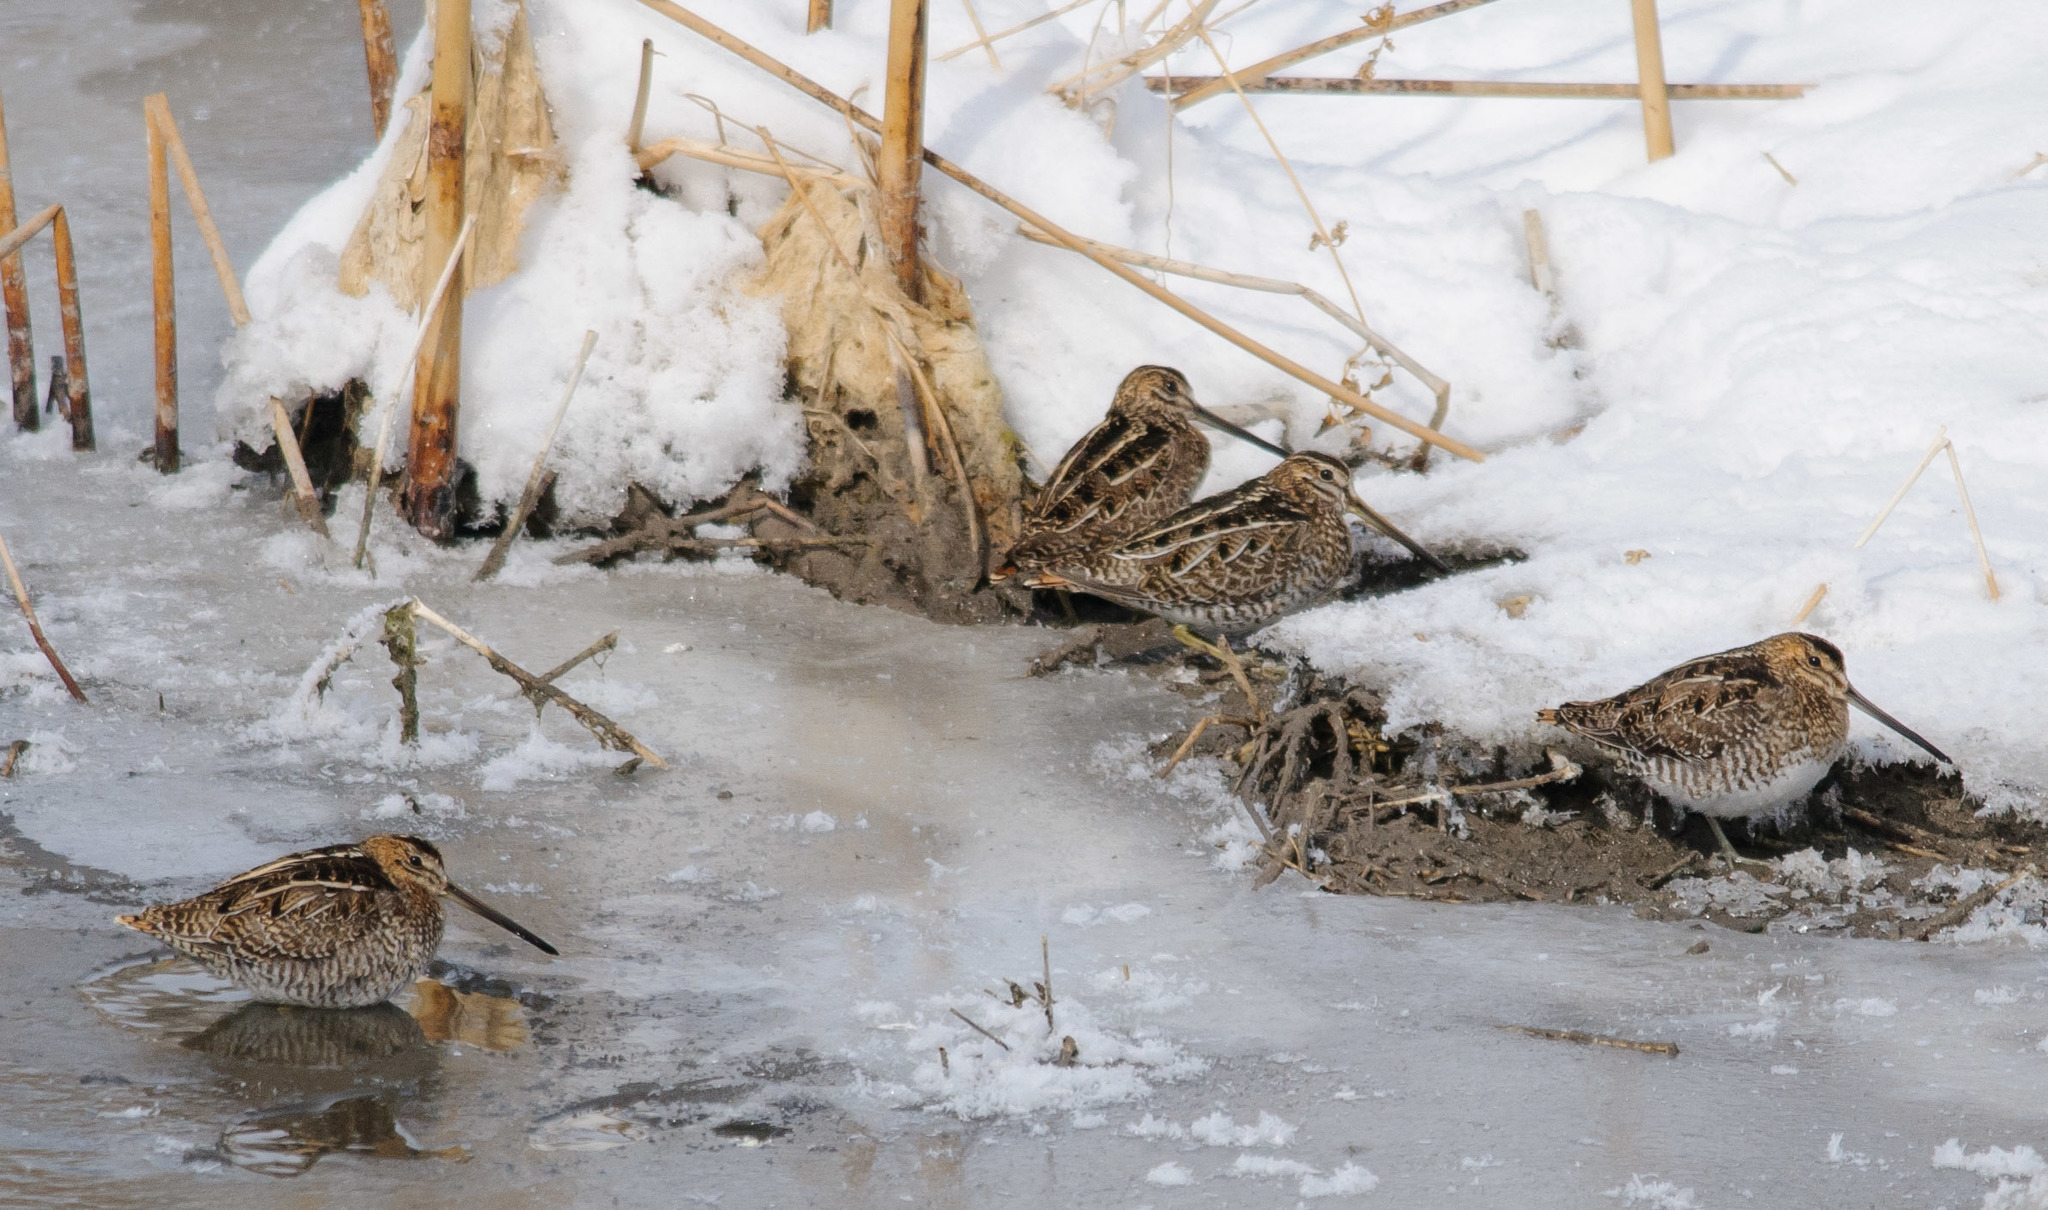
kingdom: Animalia
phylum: Chordata
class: Aves
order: Charadriiformes
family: Scolopacidae
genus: Gallinago
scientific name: Gallinago delicata
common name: Wilson's snipe
